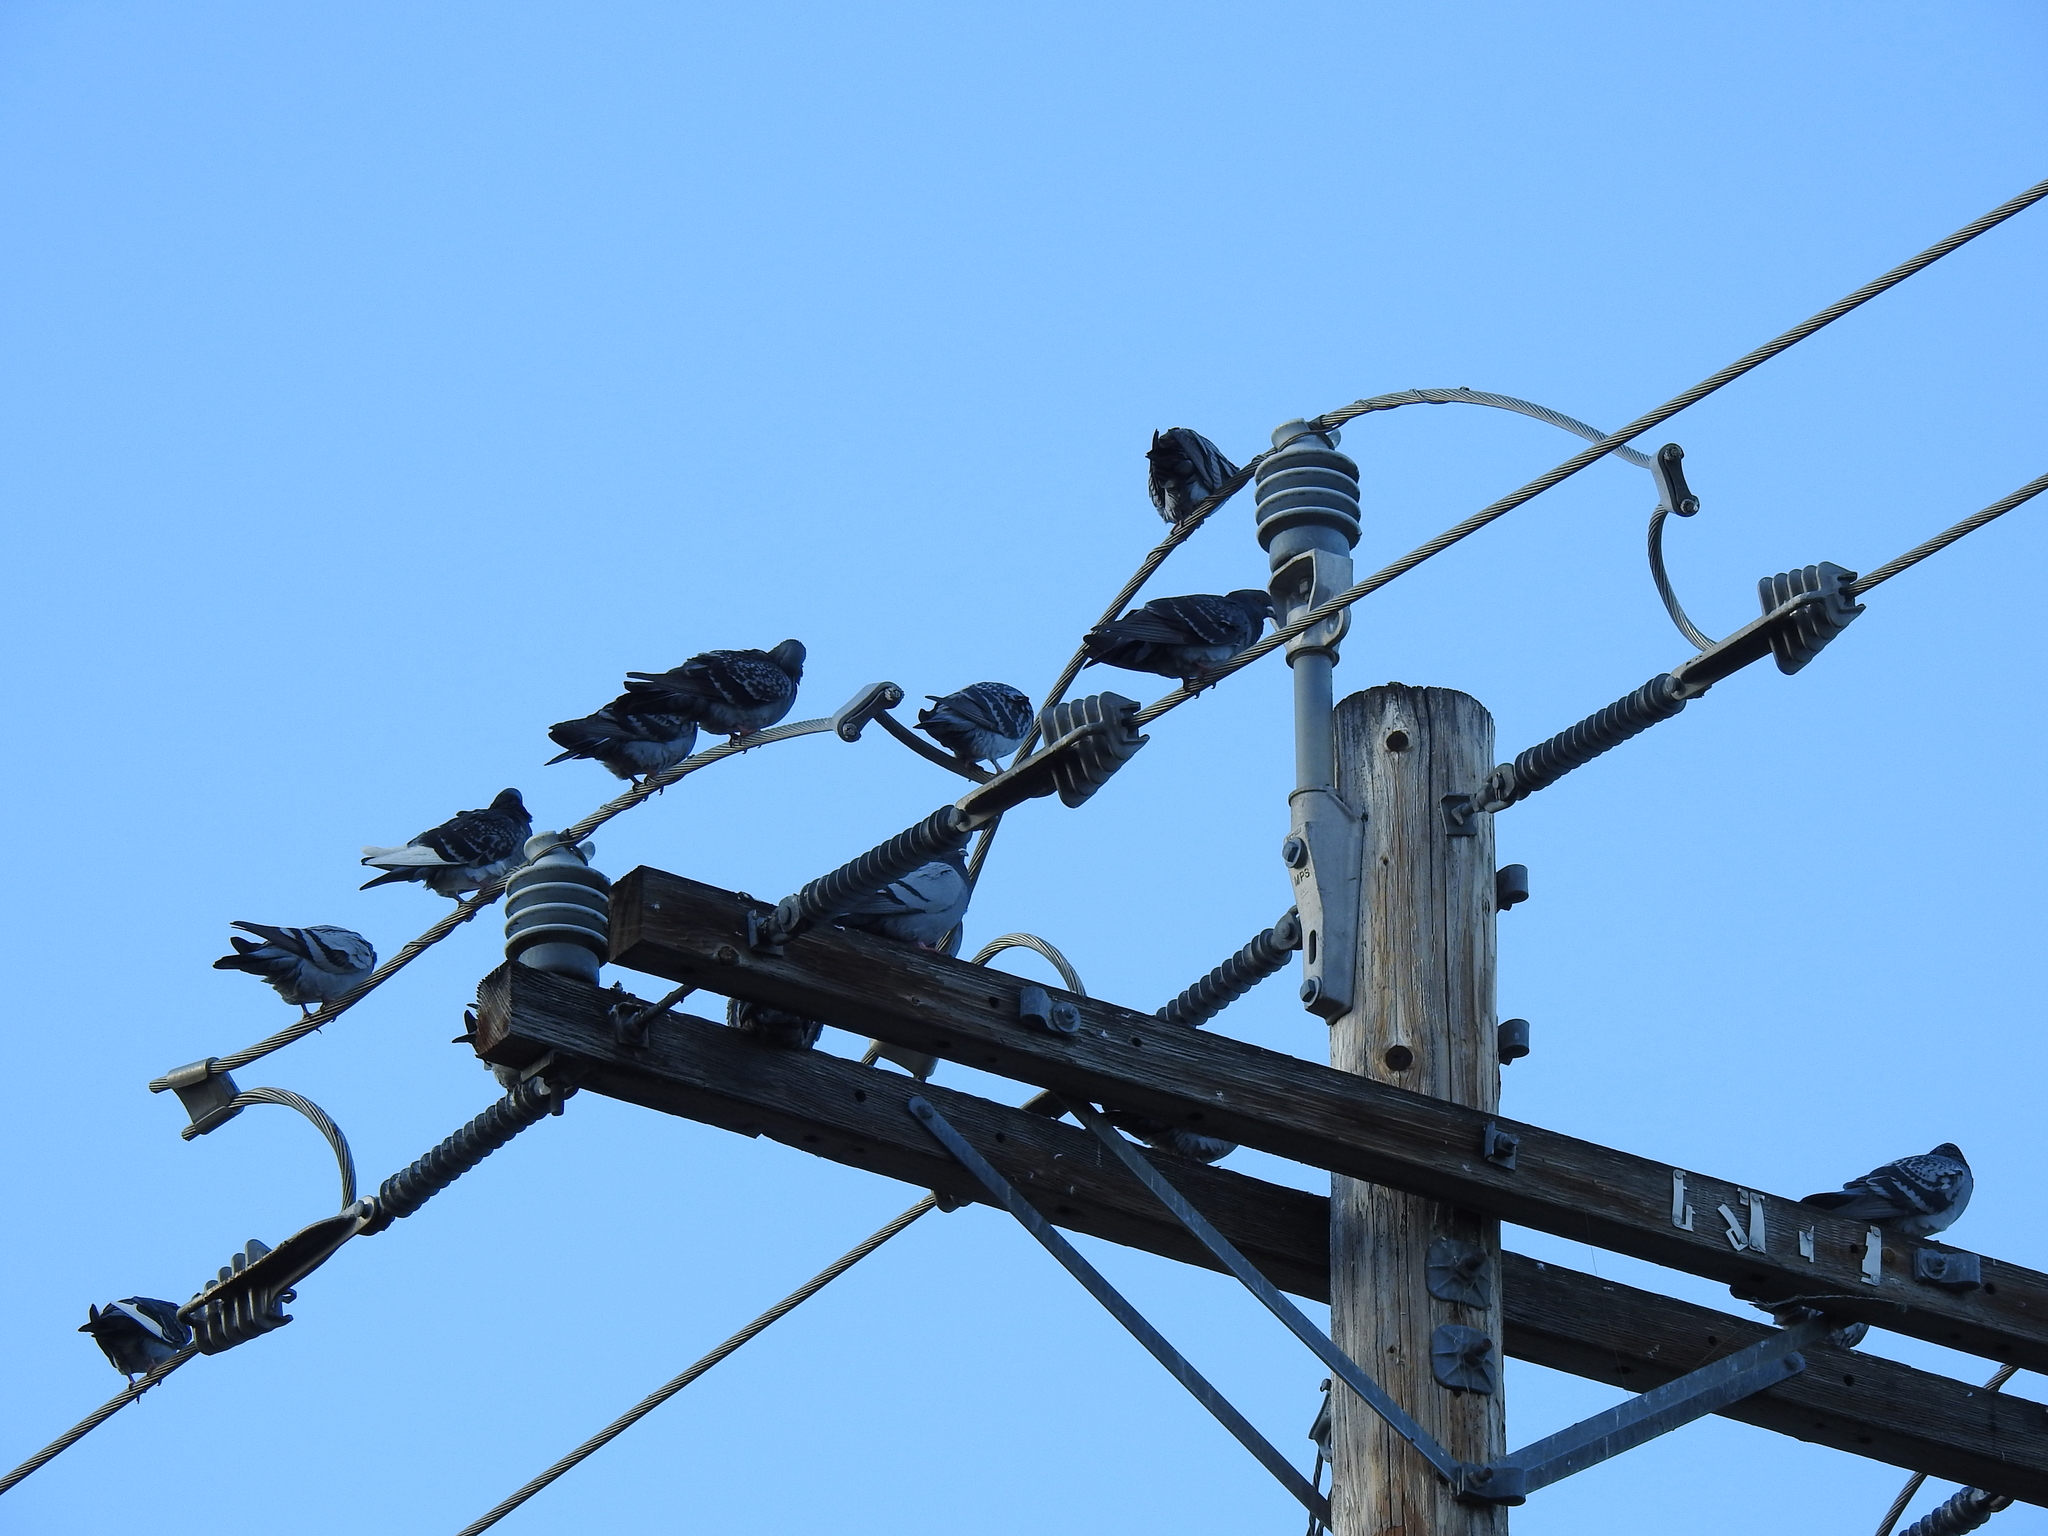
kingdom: Animalia
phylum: Chordata
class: Aves
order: Columbiformes
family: Columbidae
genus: Columba
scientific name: Columba livia
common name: Rock pigeon
